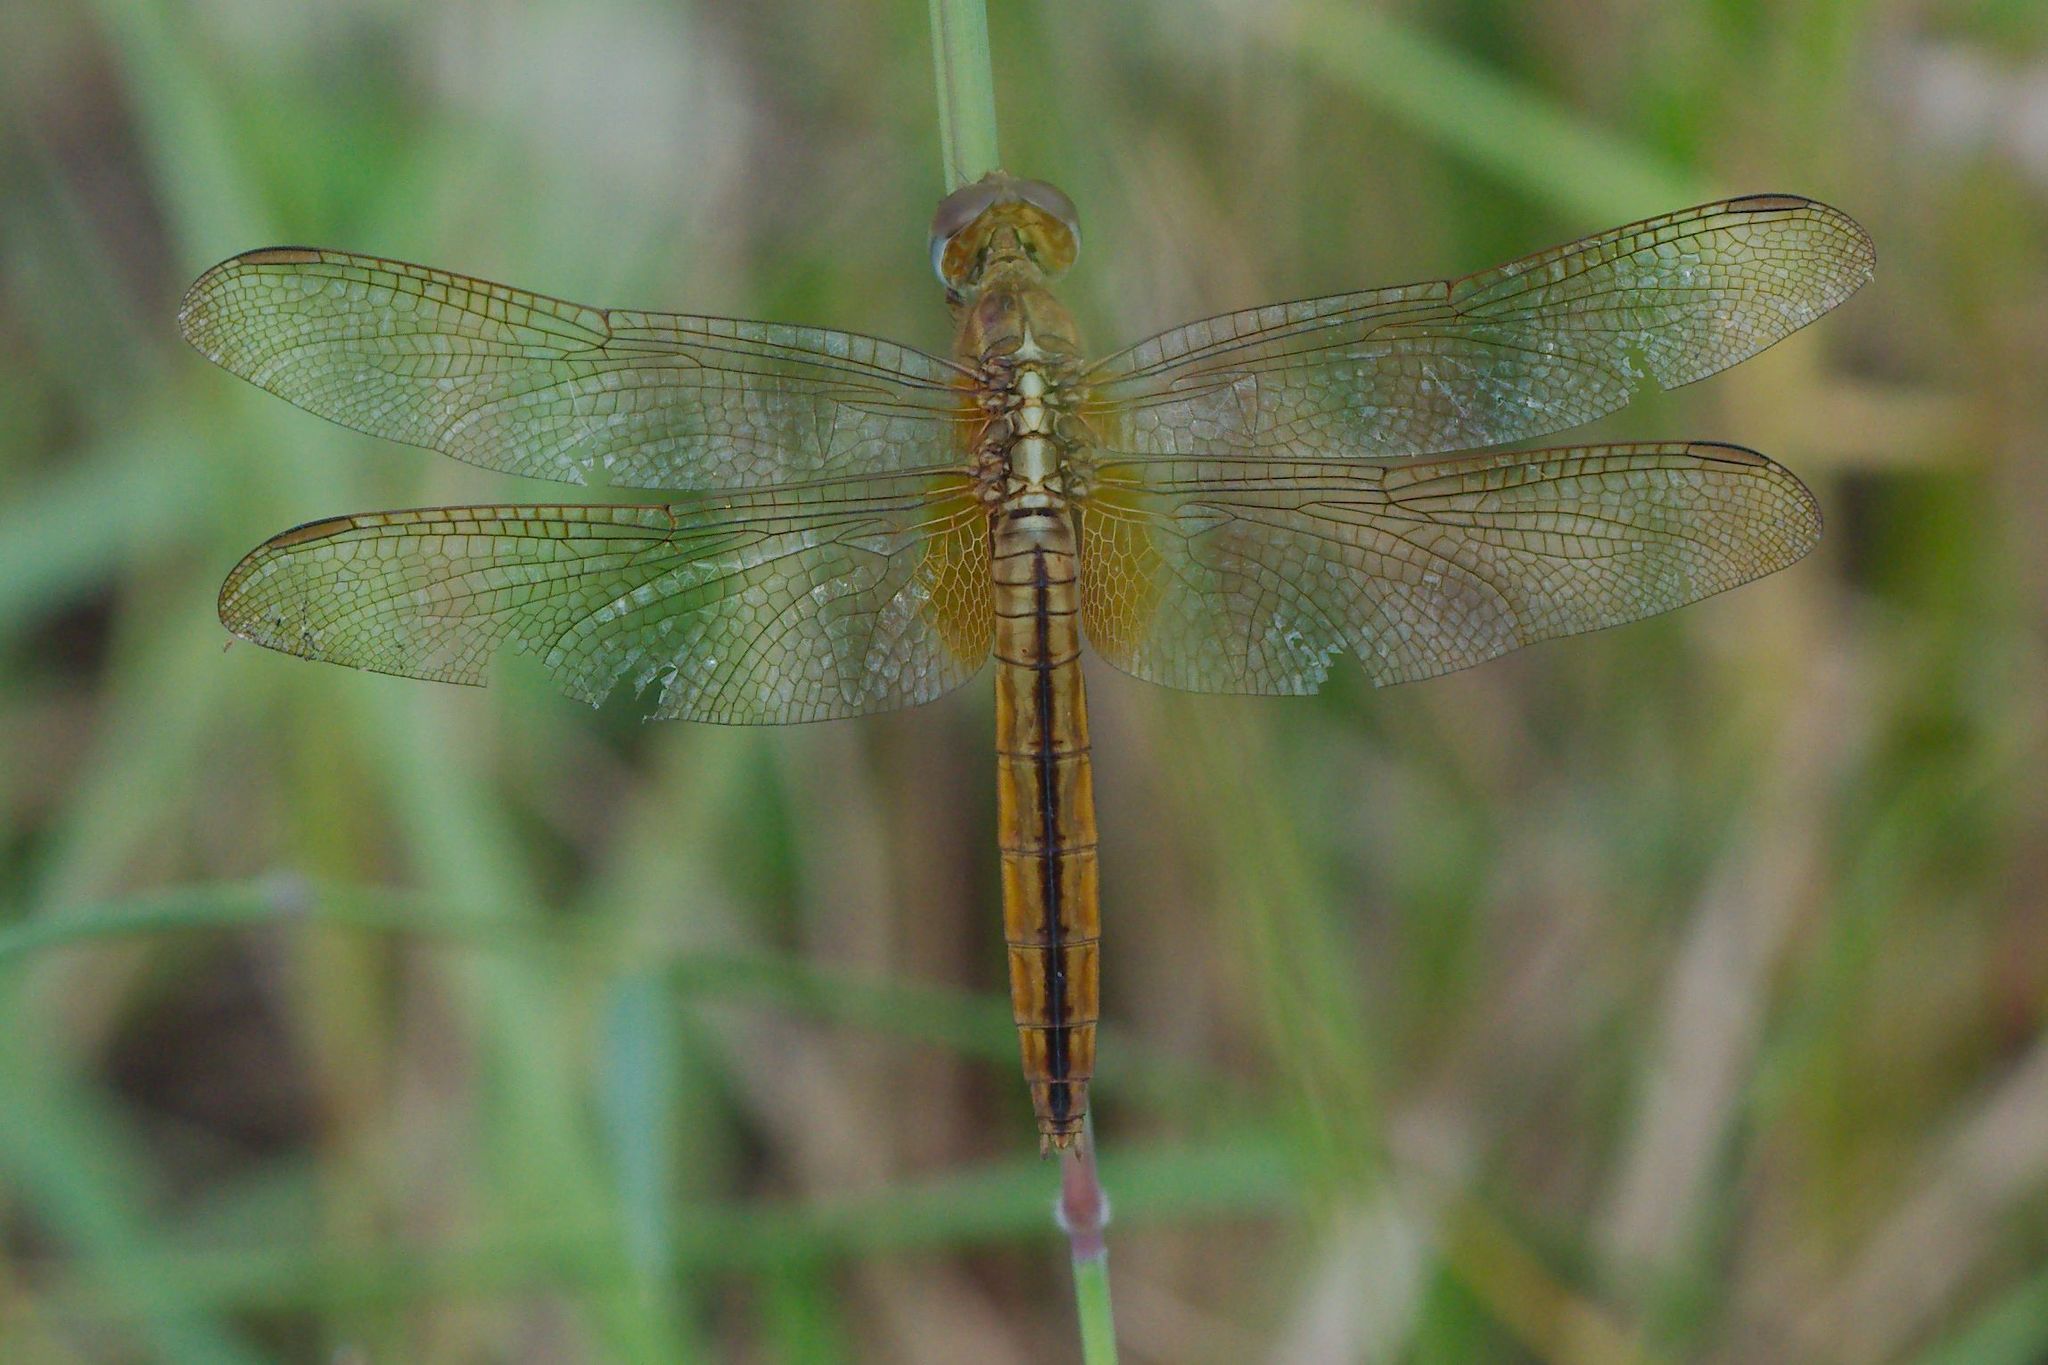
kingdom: Animalia
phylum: Arthropoda
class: Insecta
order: Odonata
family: Libellulidae
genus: Crocothemis
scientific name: Crocothemis servilia
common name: Scarlet skimmer
